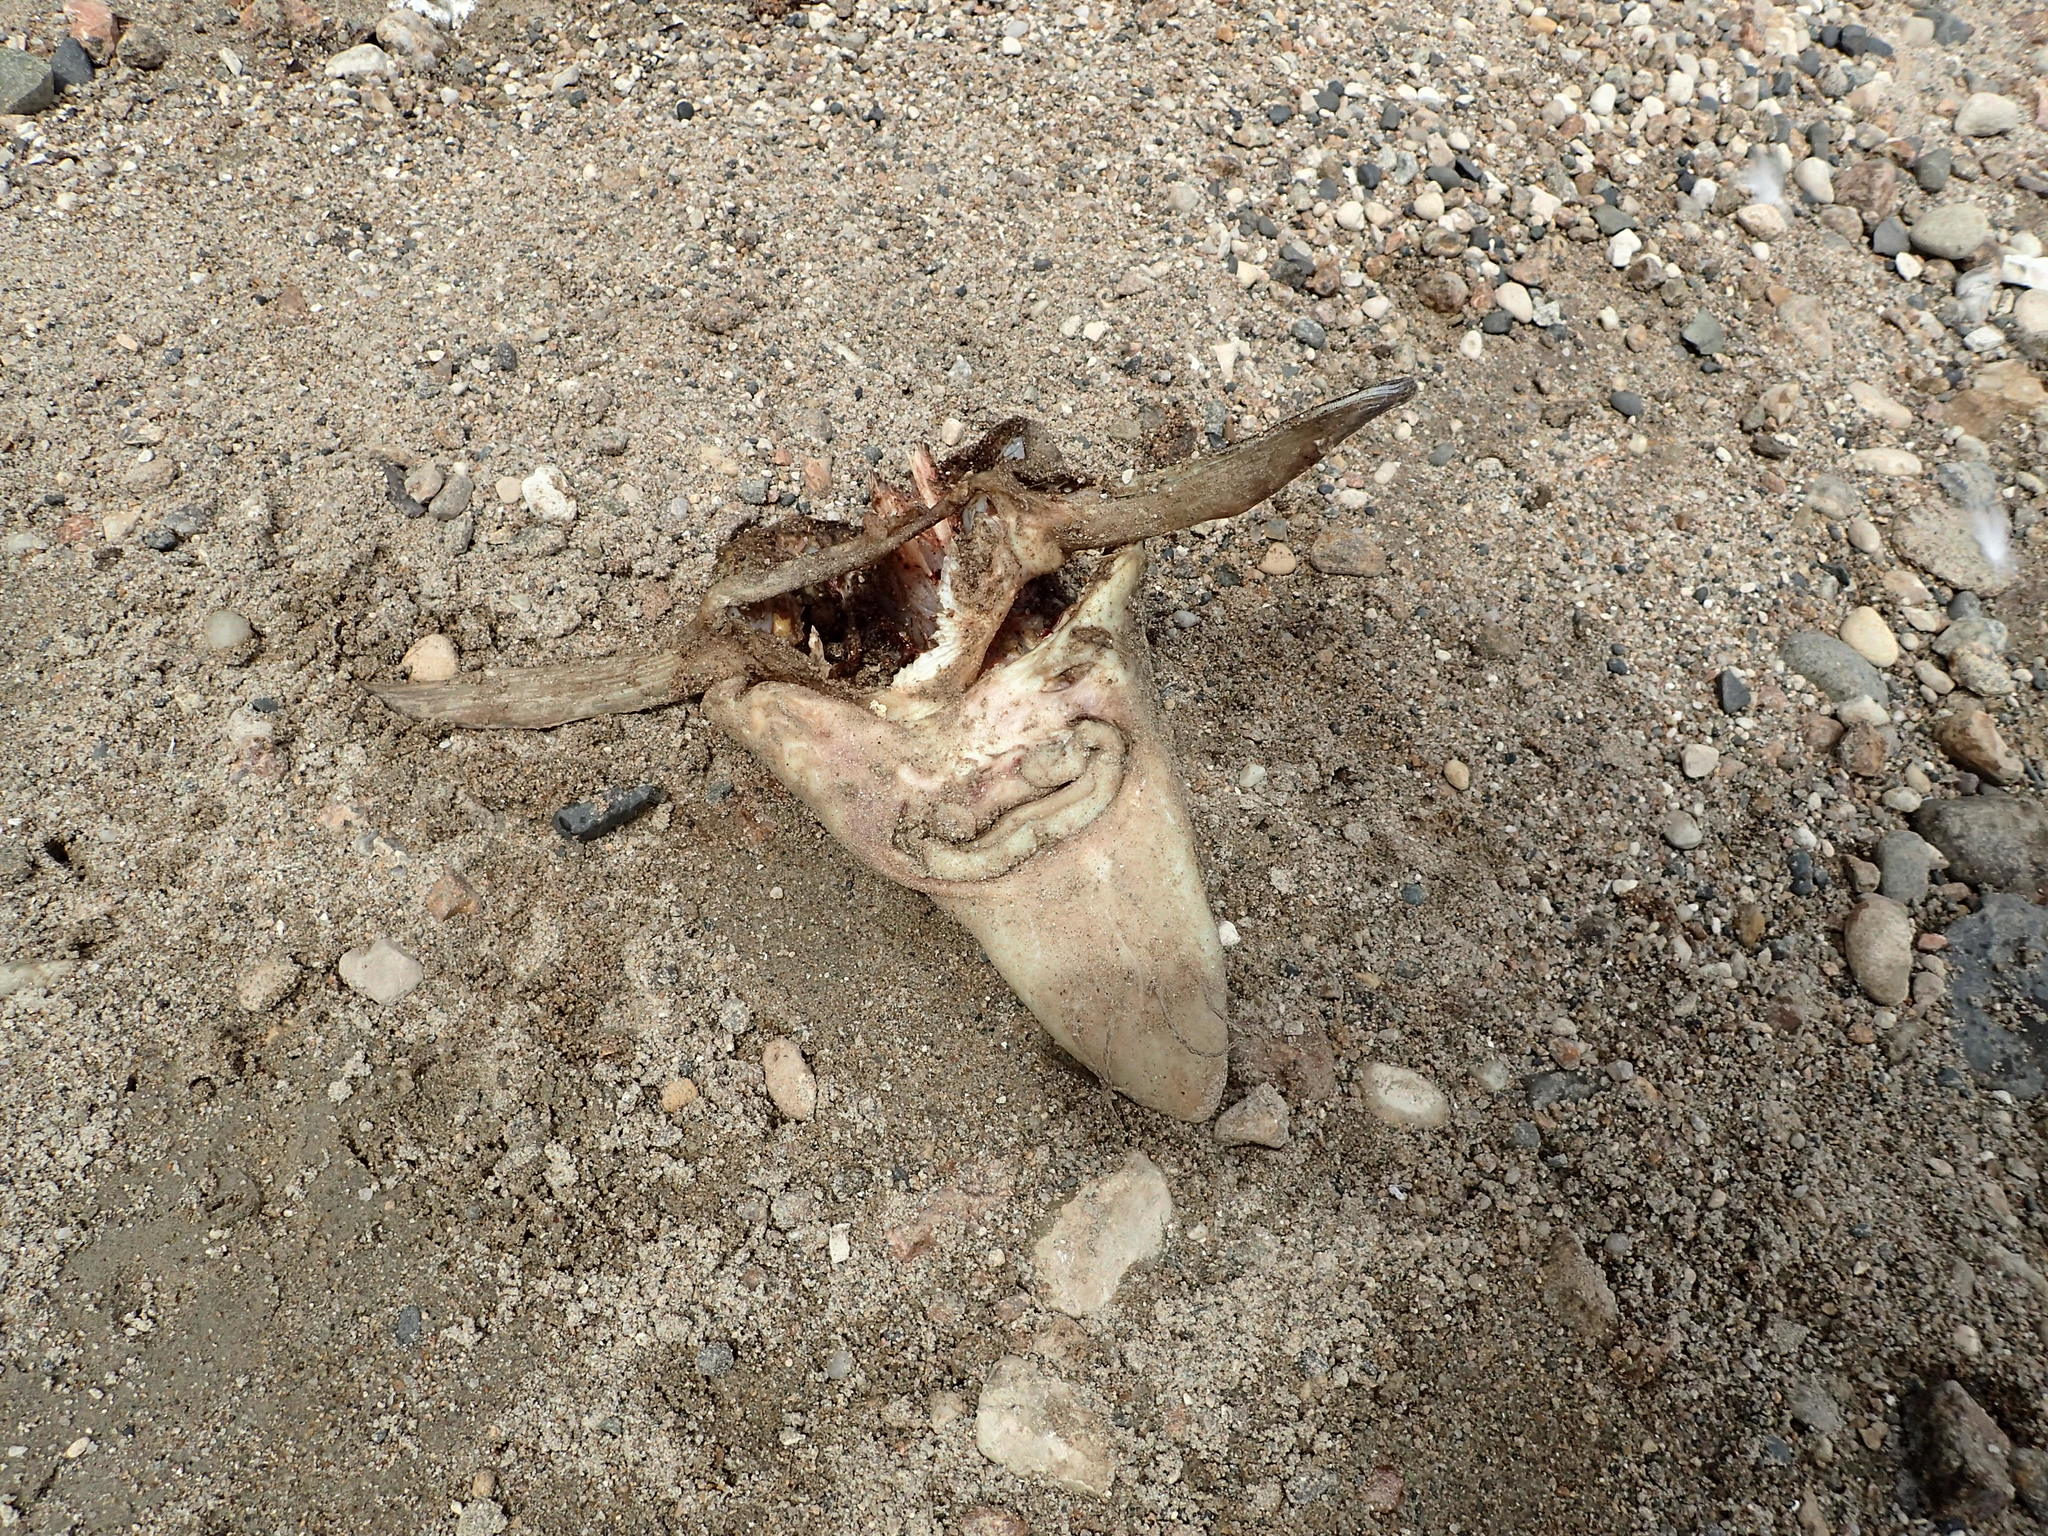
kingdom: Animalia
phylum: Chordata
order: Acipenseriformes
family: Acipenseridae
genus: Acipenser
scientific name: Acipenser fulvescens
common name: Lake sturgeon
